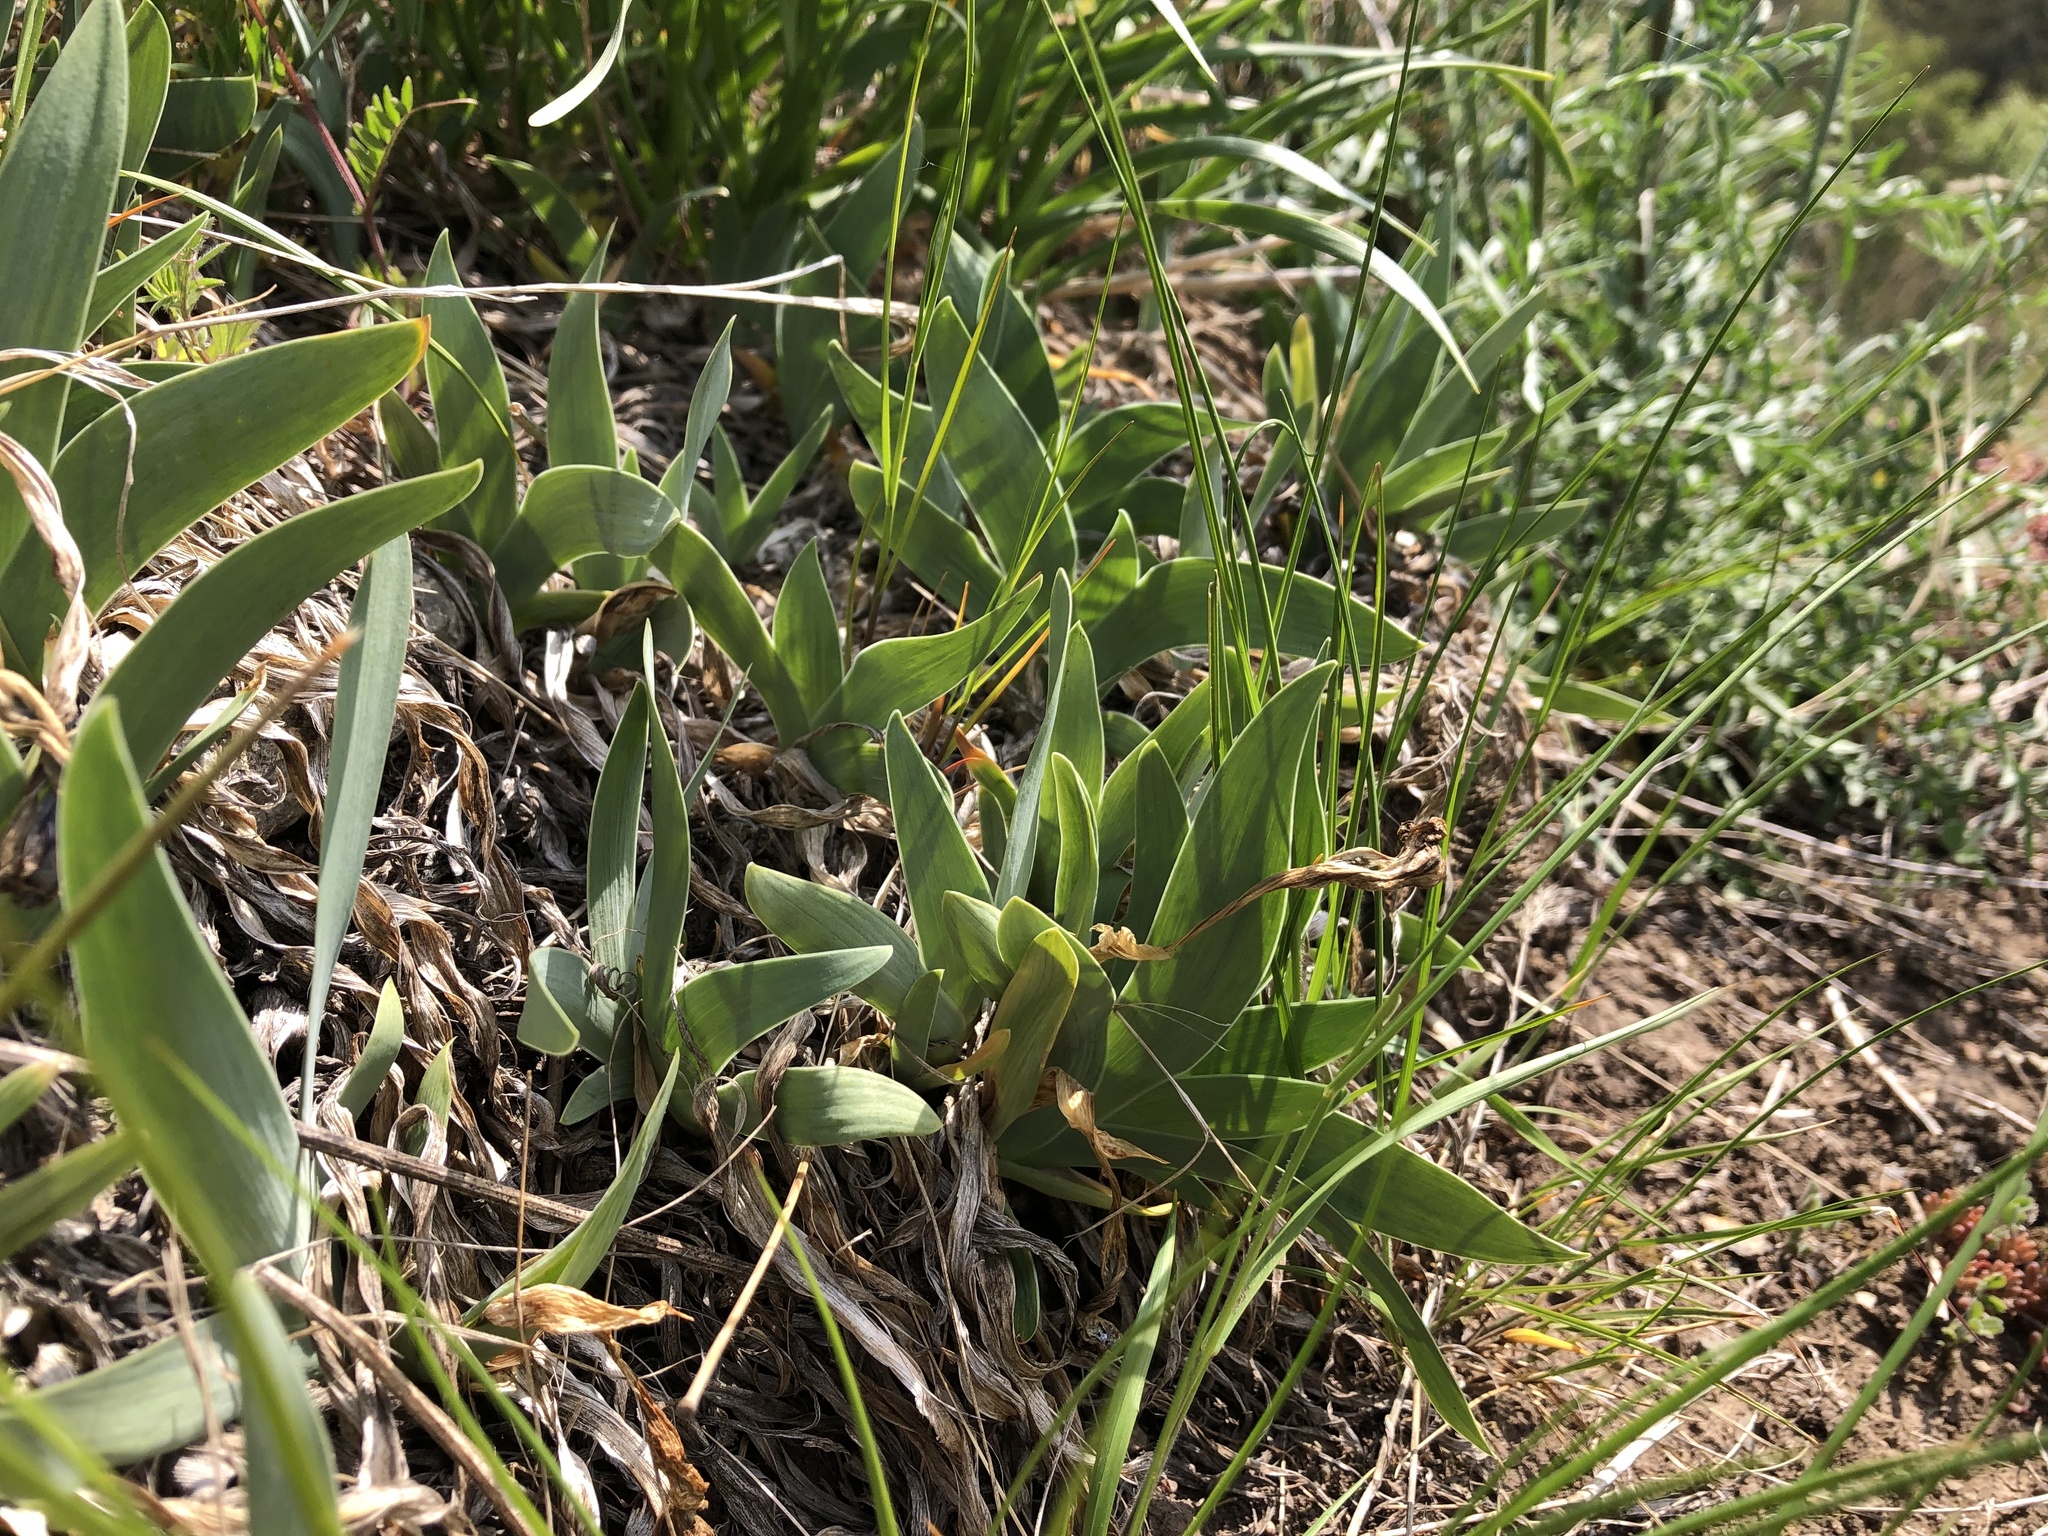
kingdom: Plantae
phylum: Tracheophyta
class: Liliopsida
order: Asparagales
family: Iridaceae
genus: Iris
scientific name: Iris pumila
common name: Dwarf iris
